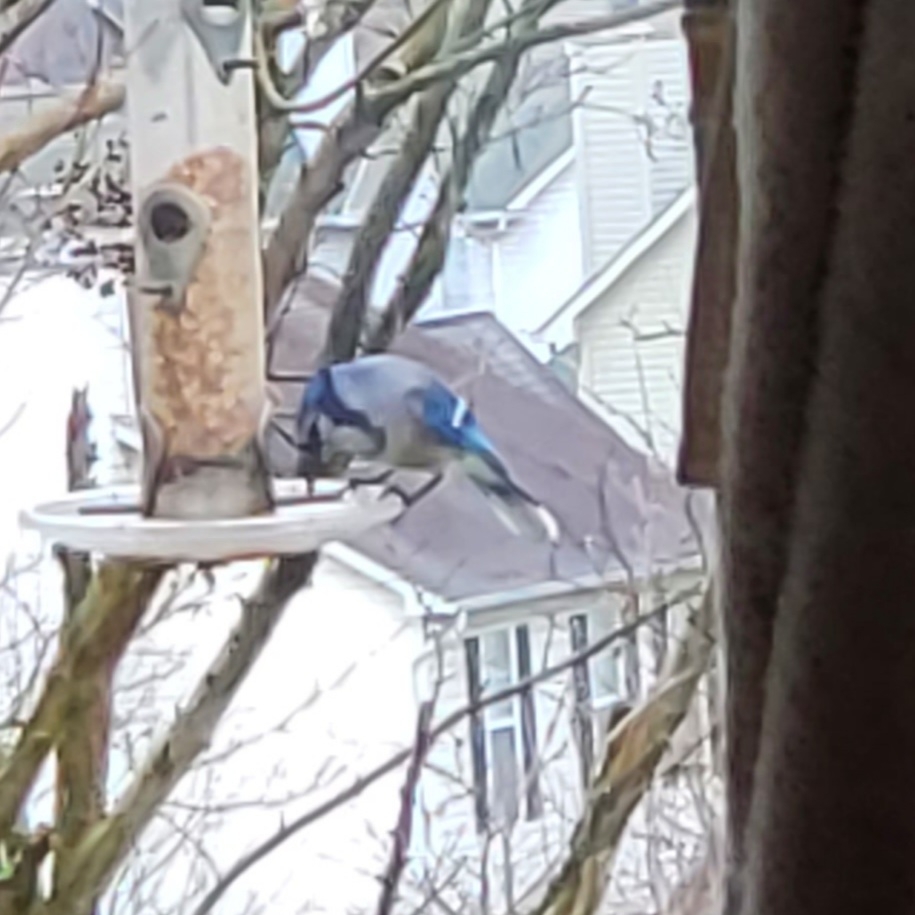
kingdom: Animalia
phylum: Chordata
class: Aves
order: Passeriformes
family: Corvidae
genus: Cyanocitta
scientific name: Cyanocitta cristata
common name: Blue jay
